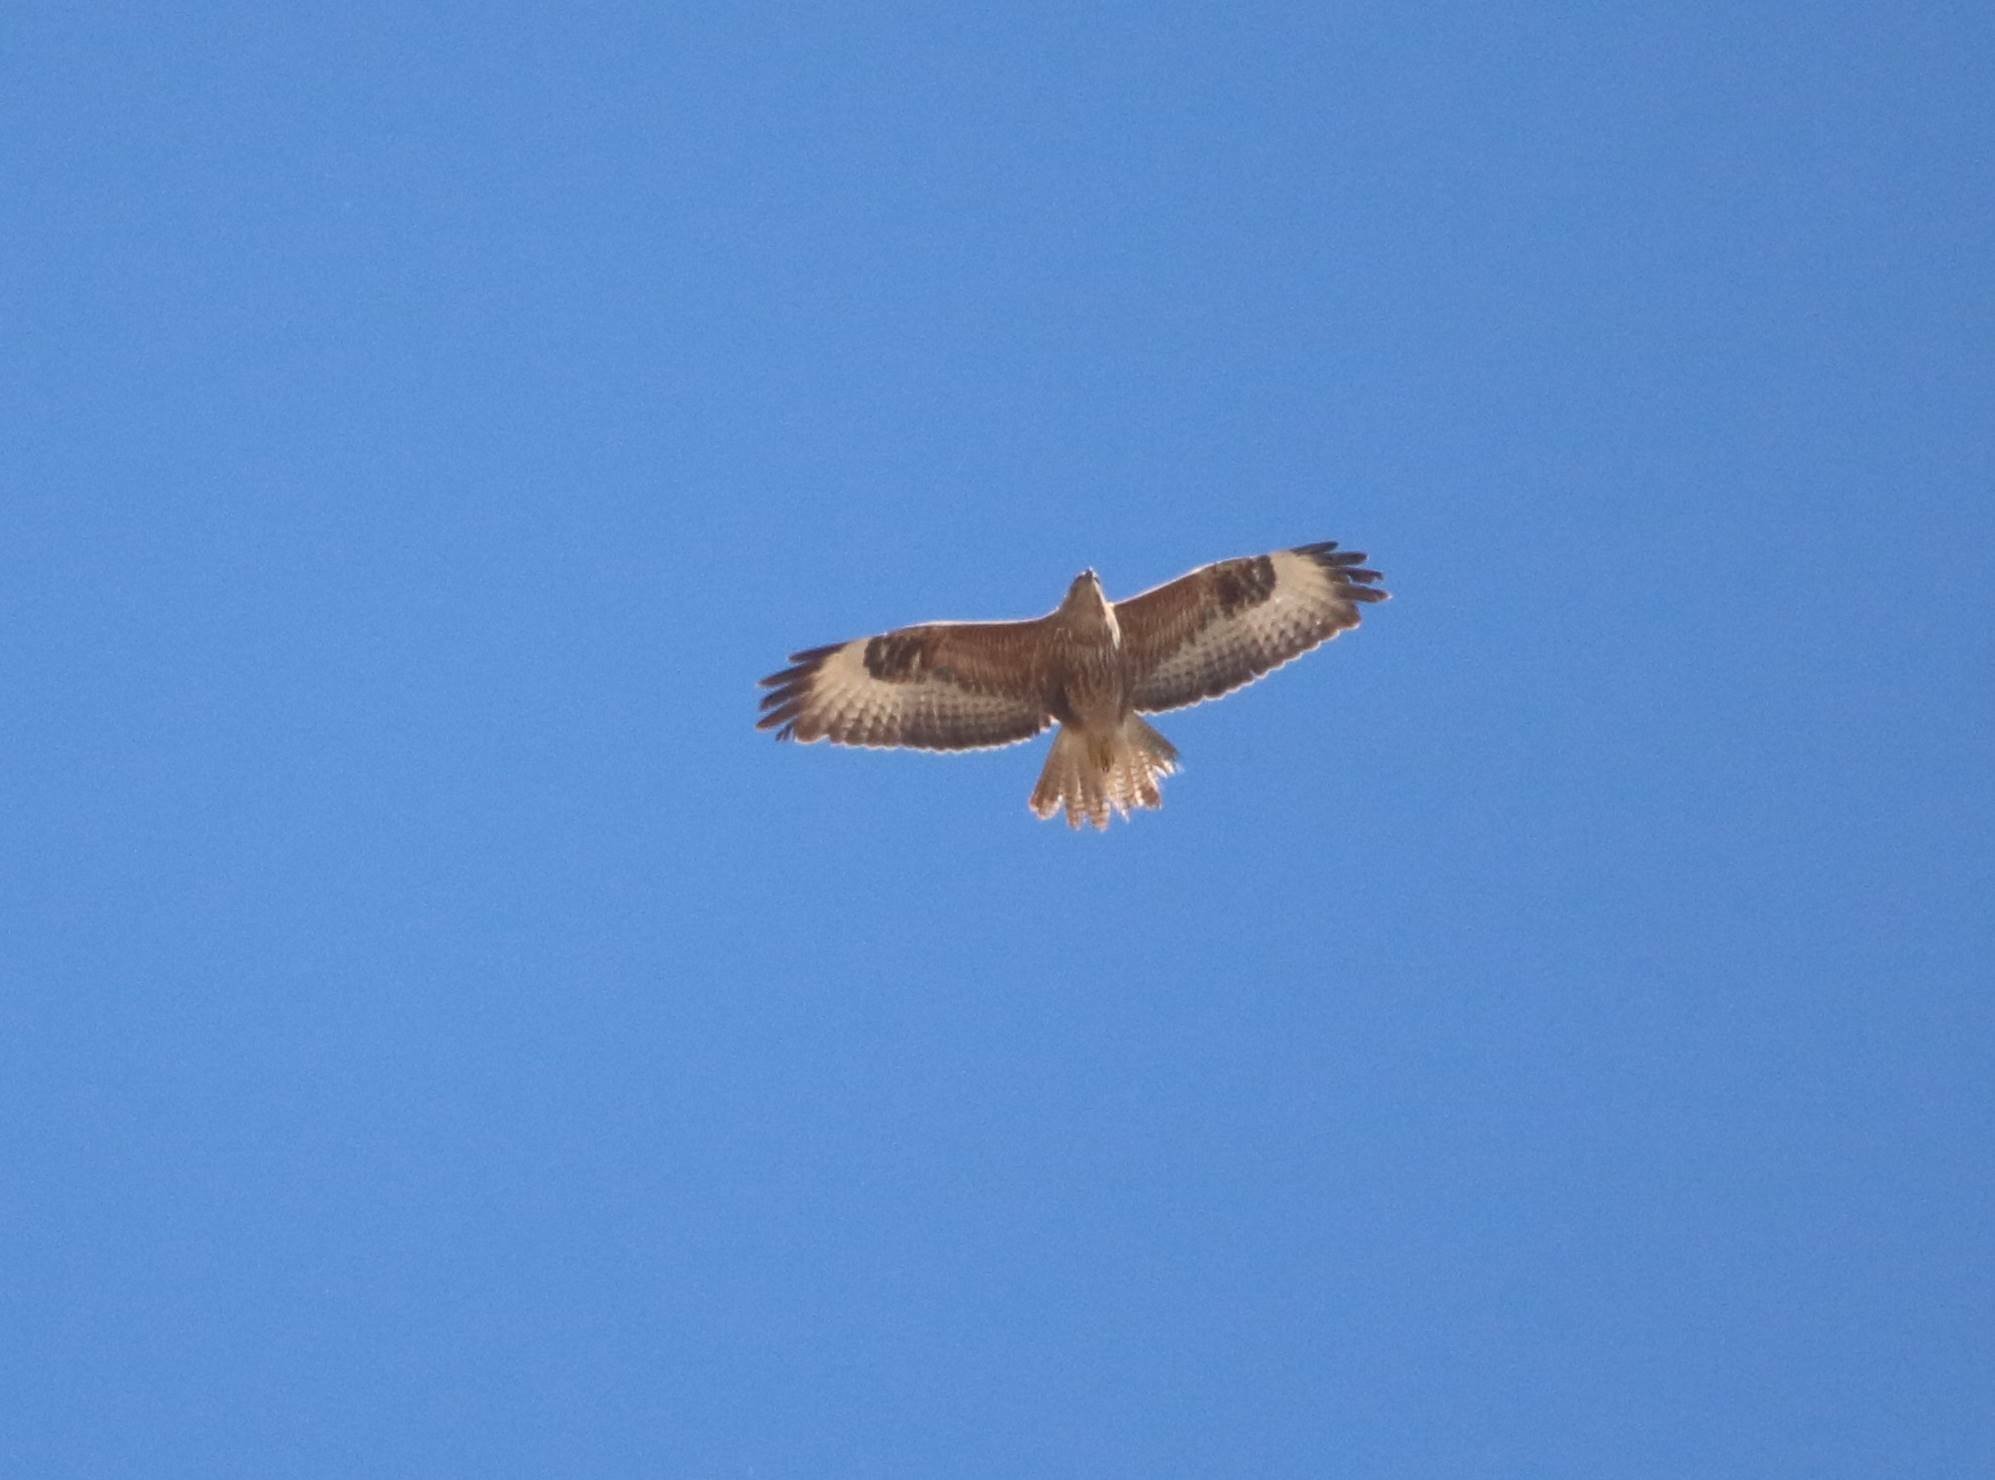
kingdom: Animalia
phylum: Chordata
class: Aves
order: Accipitriformes
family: Accipitridae
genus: Buteo
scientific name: Buteo rufinus
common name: Long-legged buzzard
